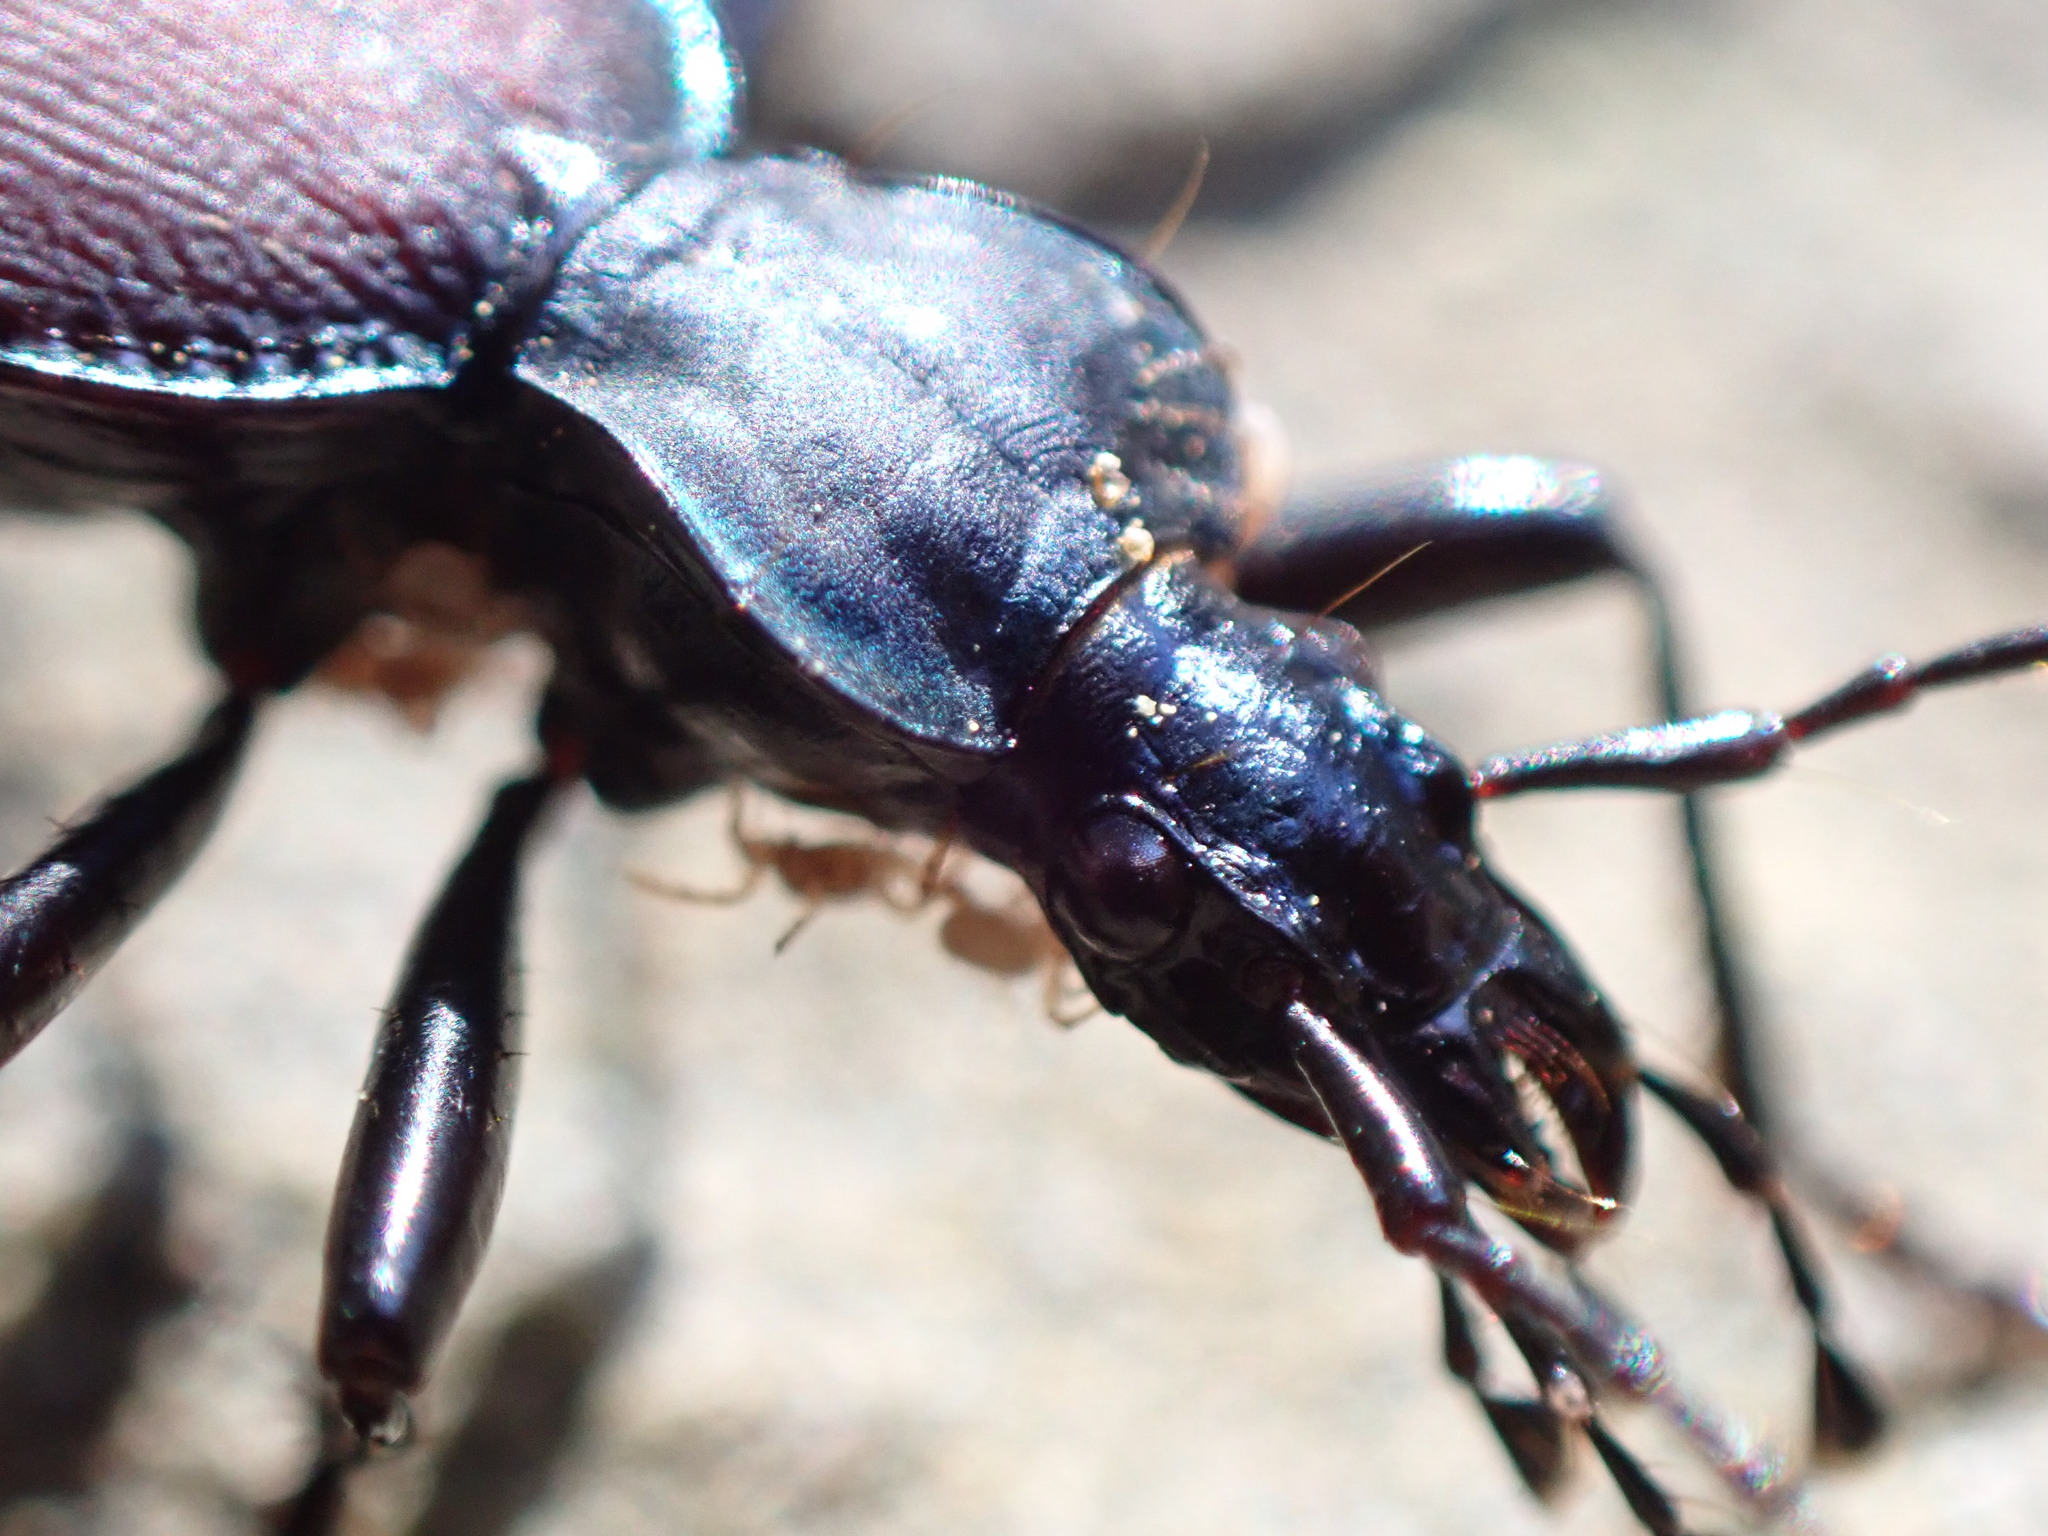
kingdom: Animalia
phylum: Arthropoda
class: Insecta
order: Coleoptera
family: Carabidae
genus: Scaphinotus
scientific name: Scaphinotus angusticollis
